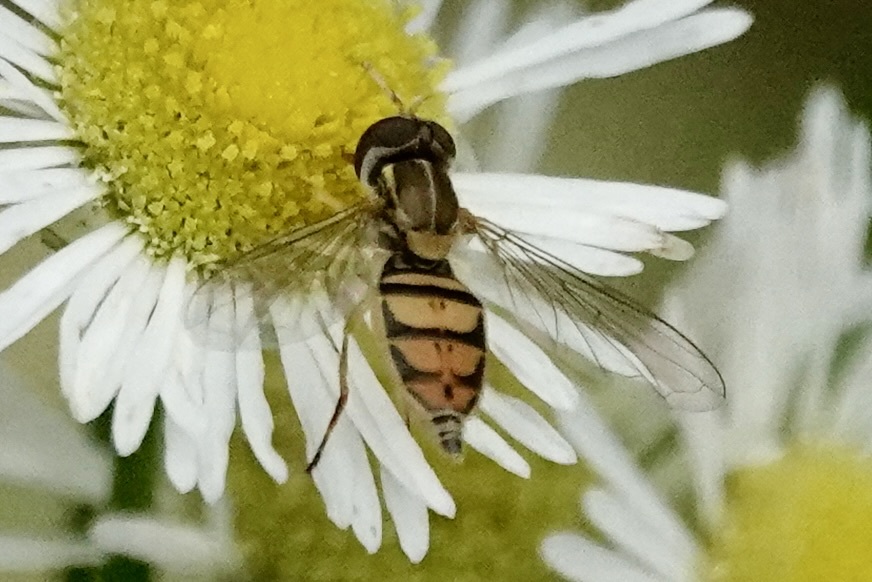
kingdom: Animalia
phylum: Arthropoda
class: Insecta
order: Diptera
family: Syrphidae
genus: Toxomerus
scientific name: Toxomerus marginatus
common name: Syrphid fly
